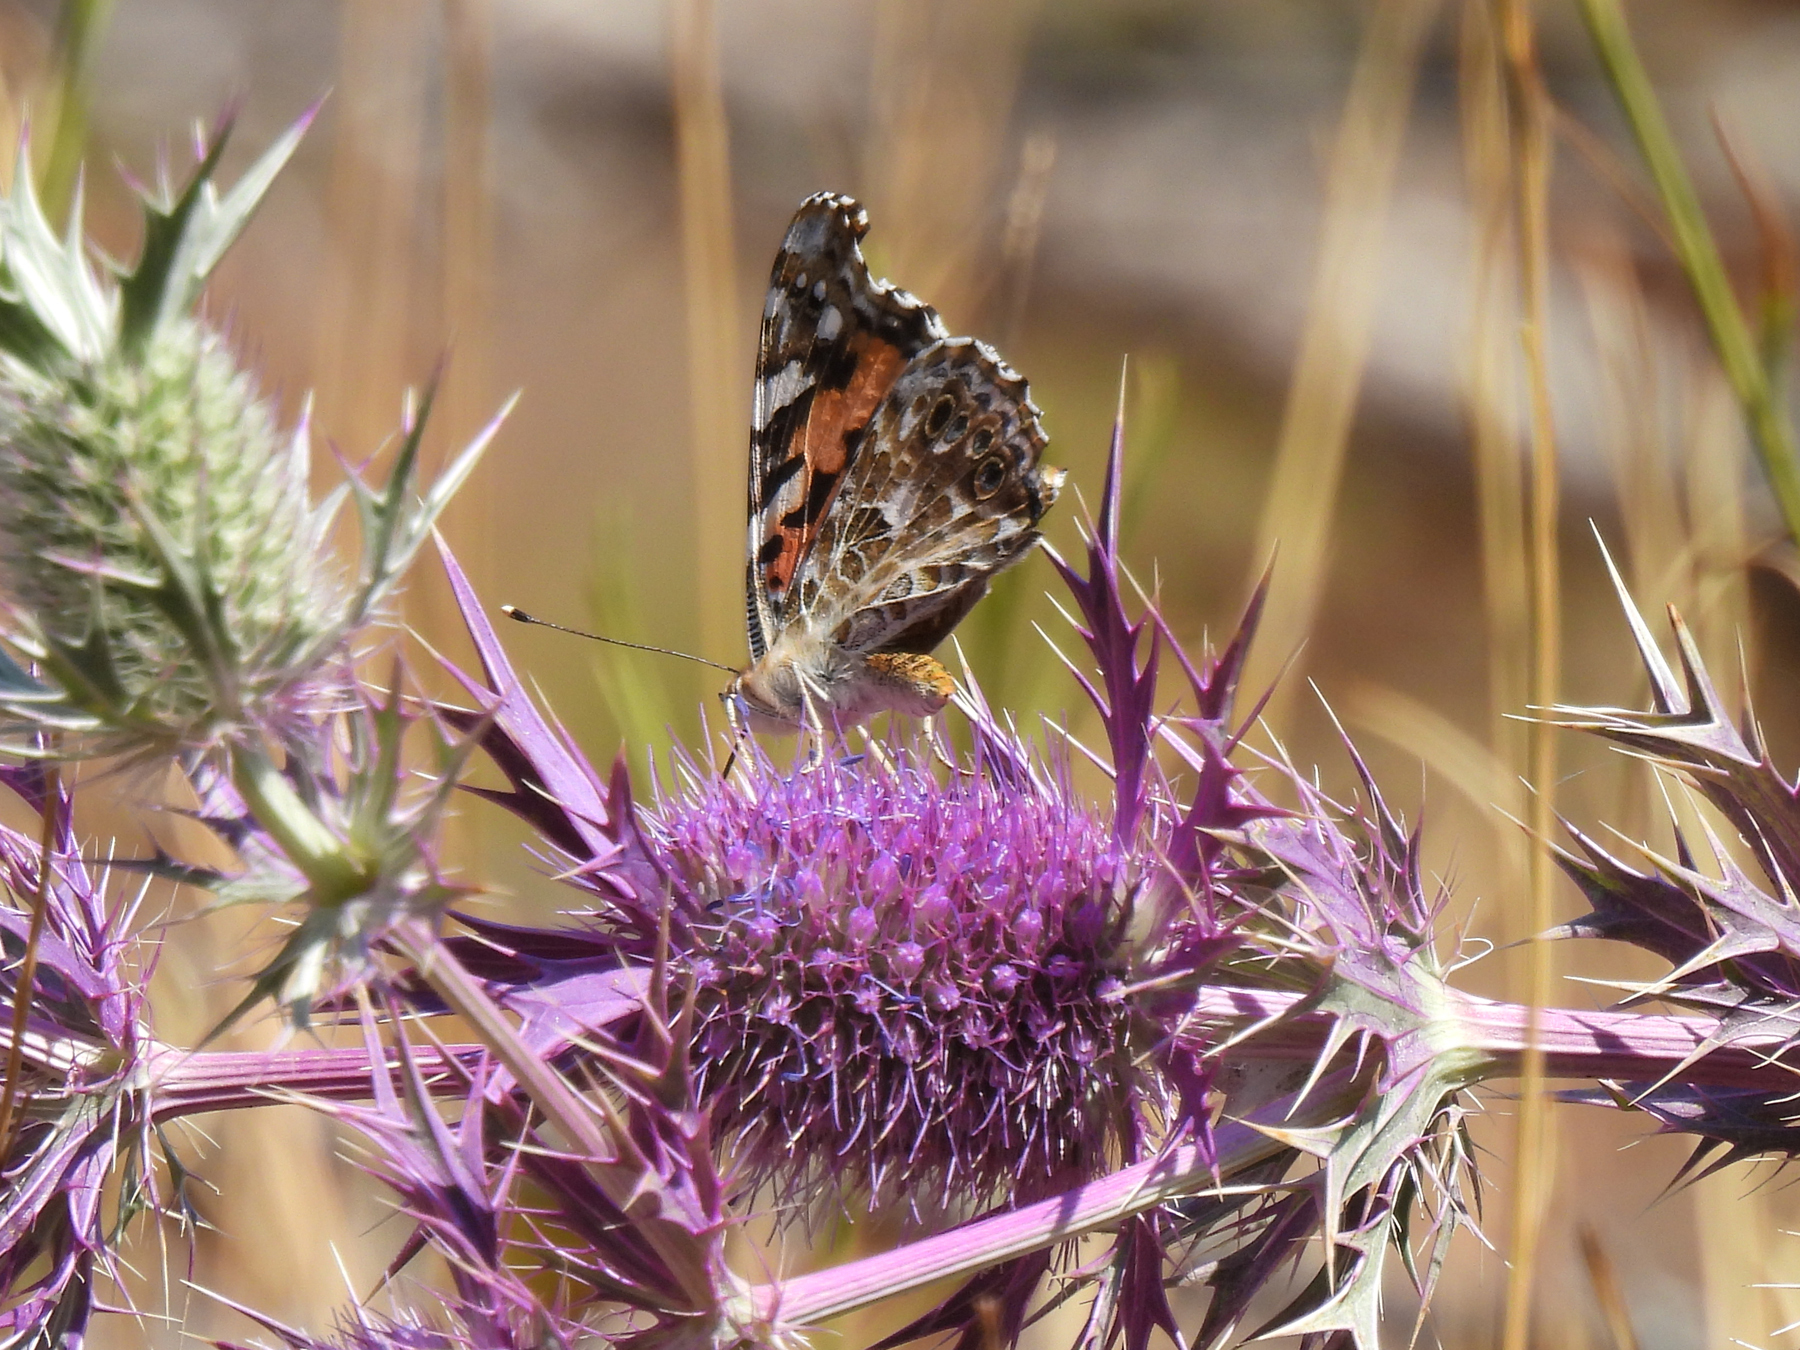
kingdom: Animalia
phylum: Arthropoda
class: Insecta
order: Lepidoptera
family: Nymphalidae
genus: Vanessa
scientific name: Vanessa cardui
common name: Painted lady
